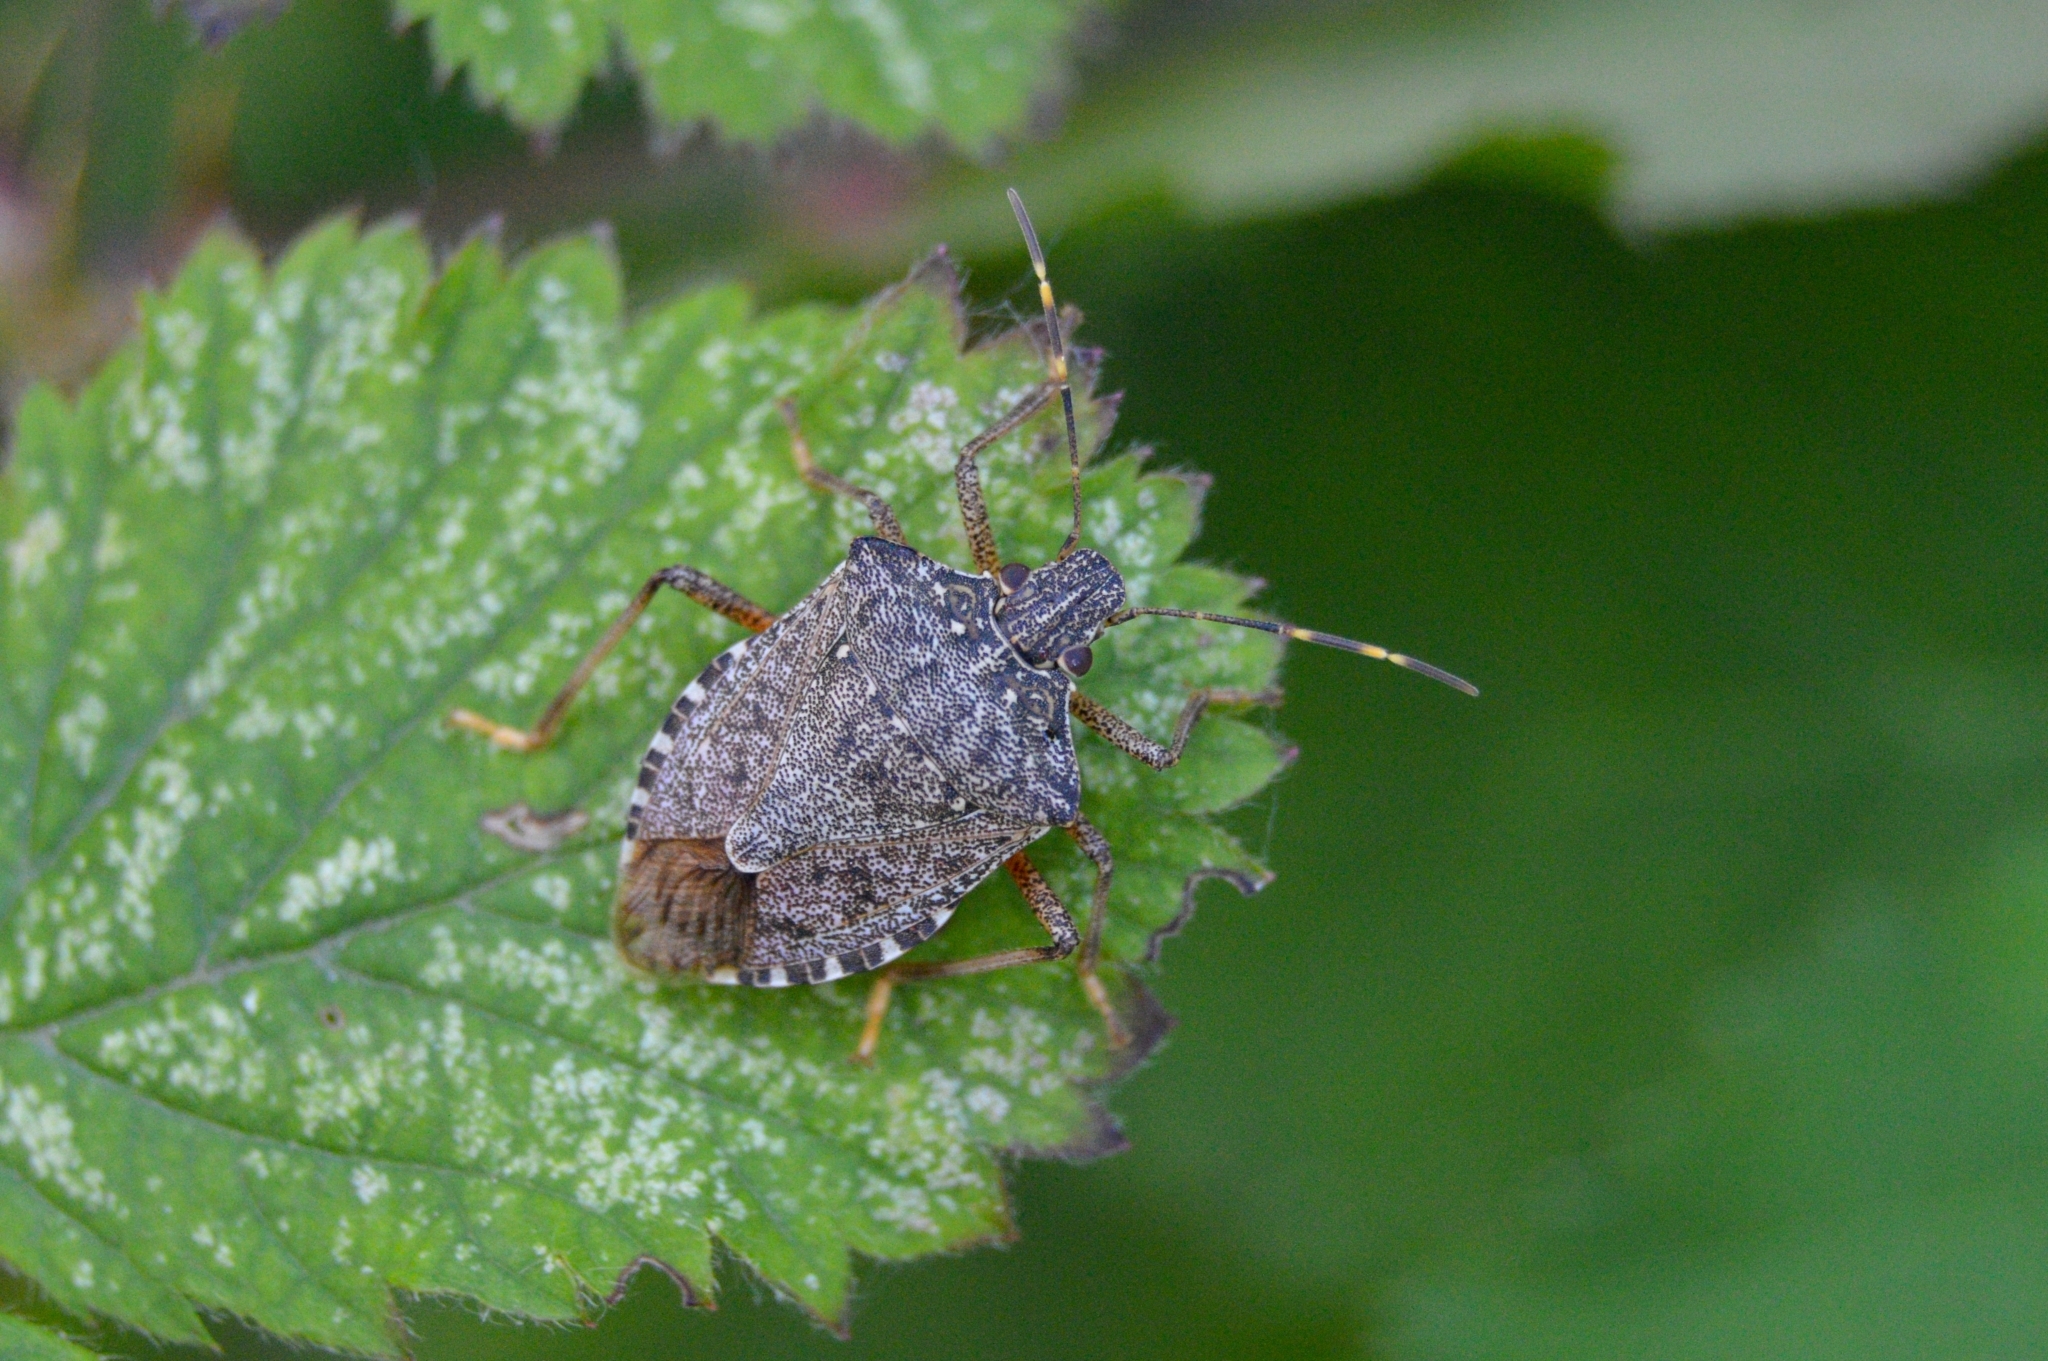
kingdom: Animalia
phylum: Arthropoda
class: Insecta
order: Hemiptera
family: Pentatomidae
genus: Halyomorpha
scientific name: Halyomorpha halys
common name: Brown marmorated stink bug
